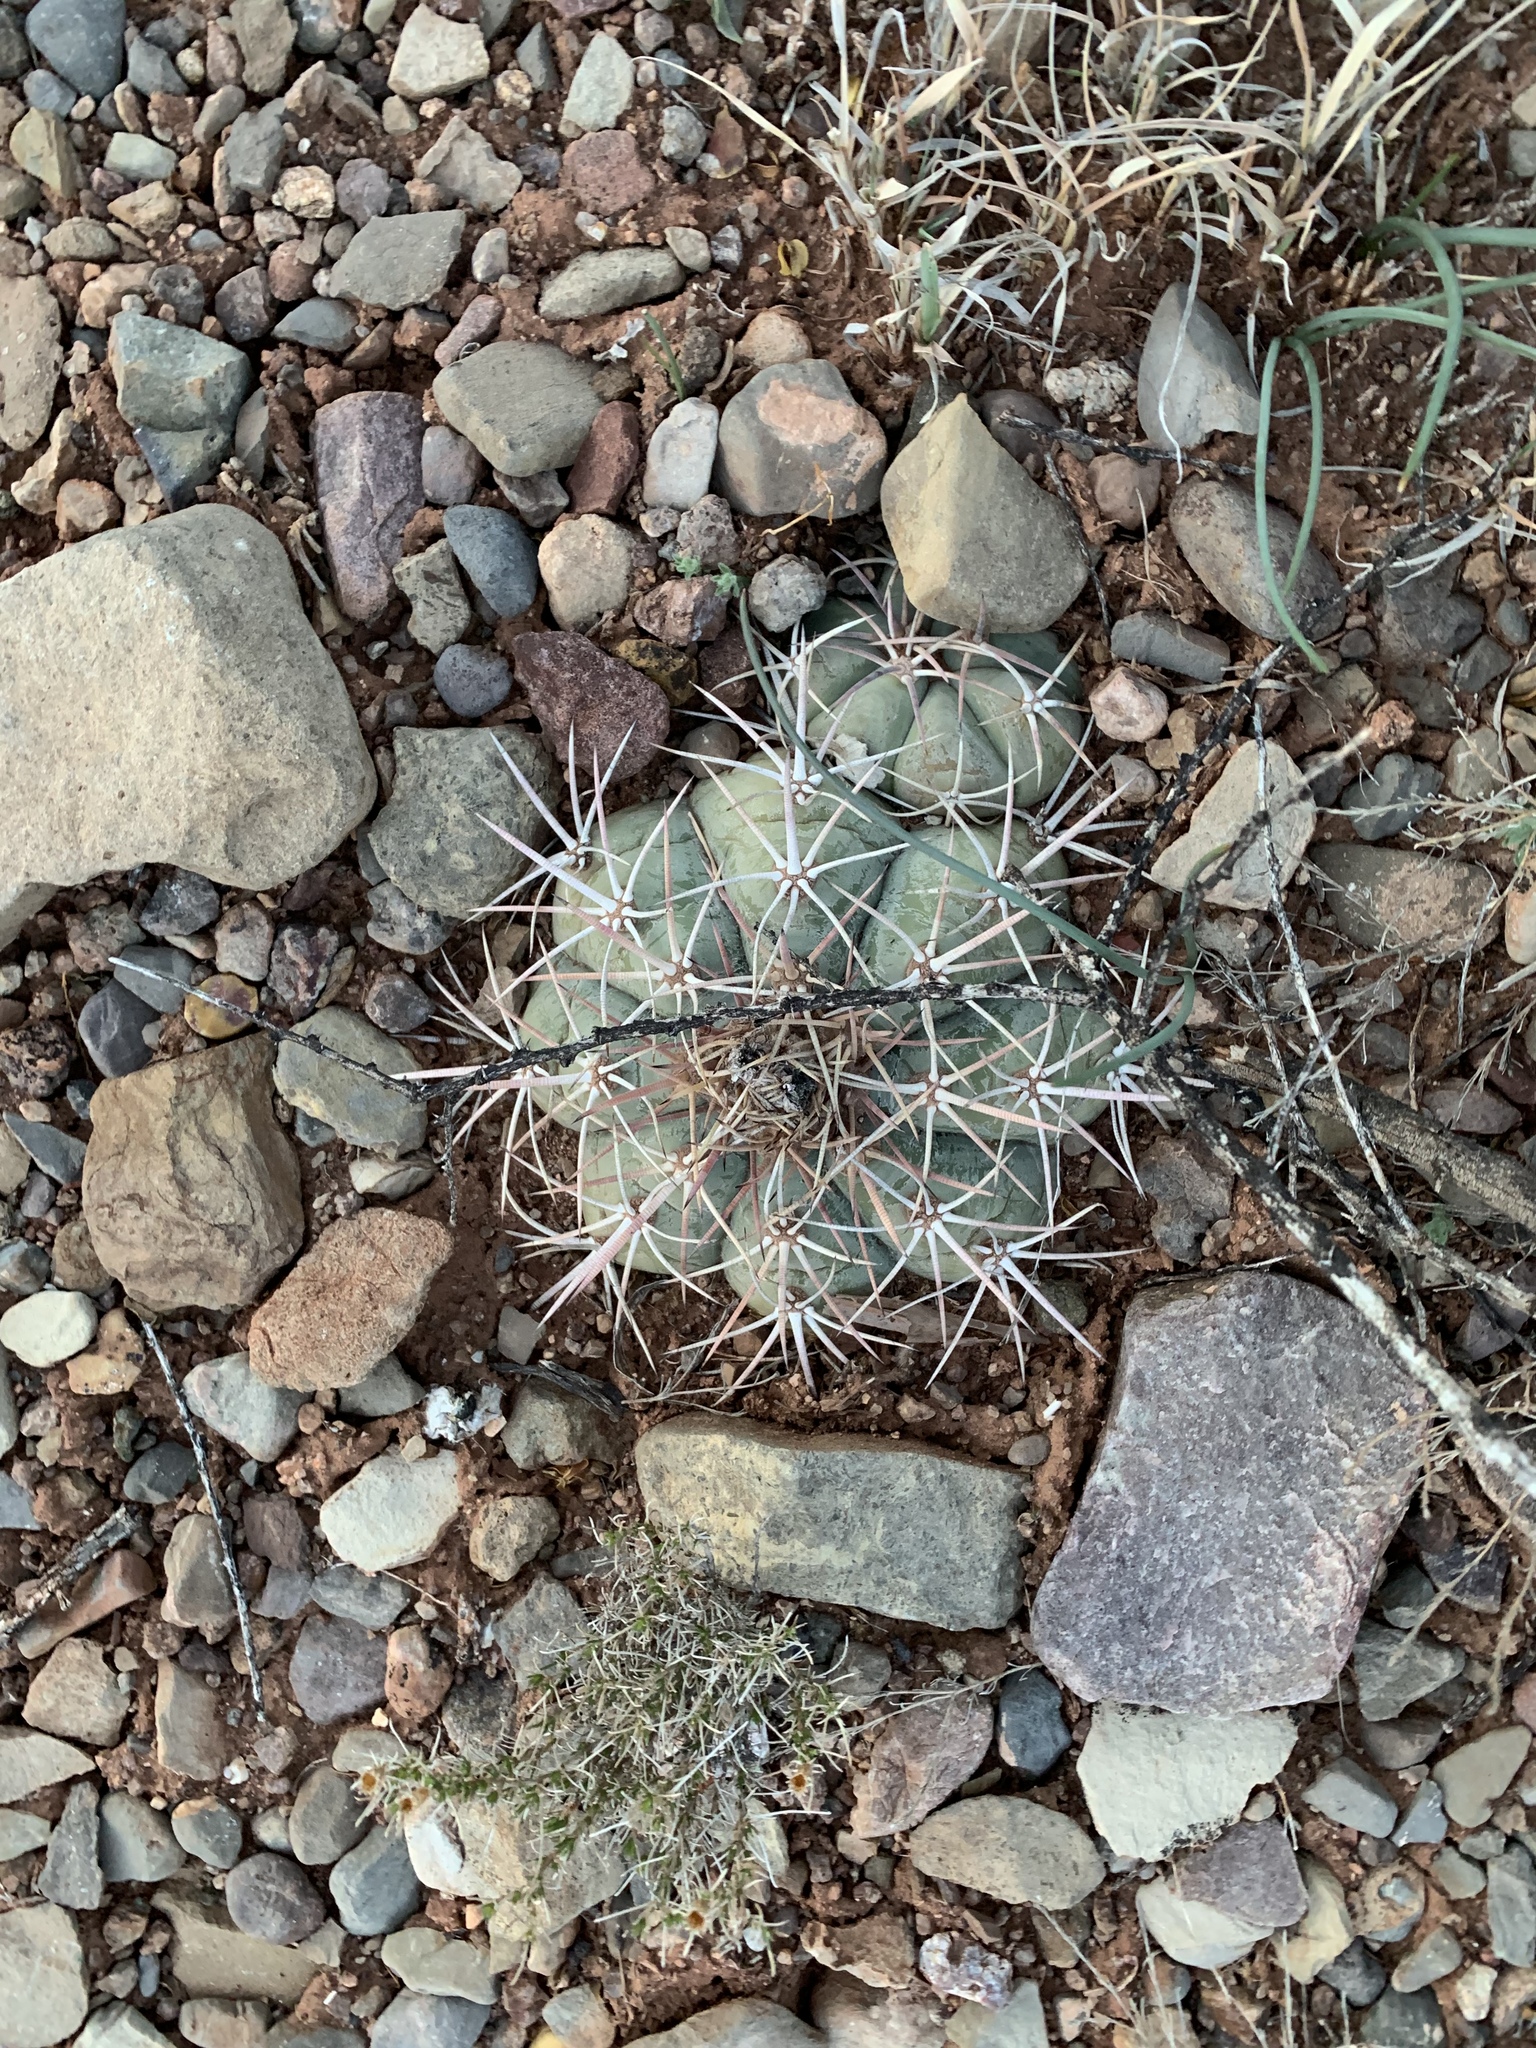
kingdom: Plantae
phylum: Tracheophyta
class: Magnoliopsida
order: Caryophyllales
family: Cactaceae
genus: Echinocactus
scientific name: Echinocactus horizonthalonius
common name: Devilshead
